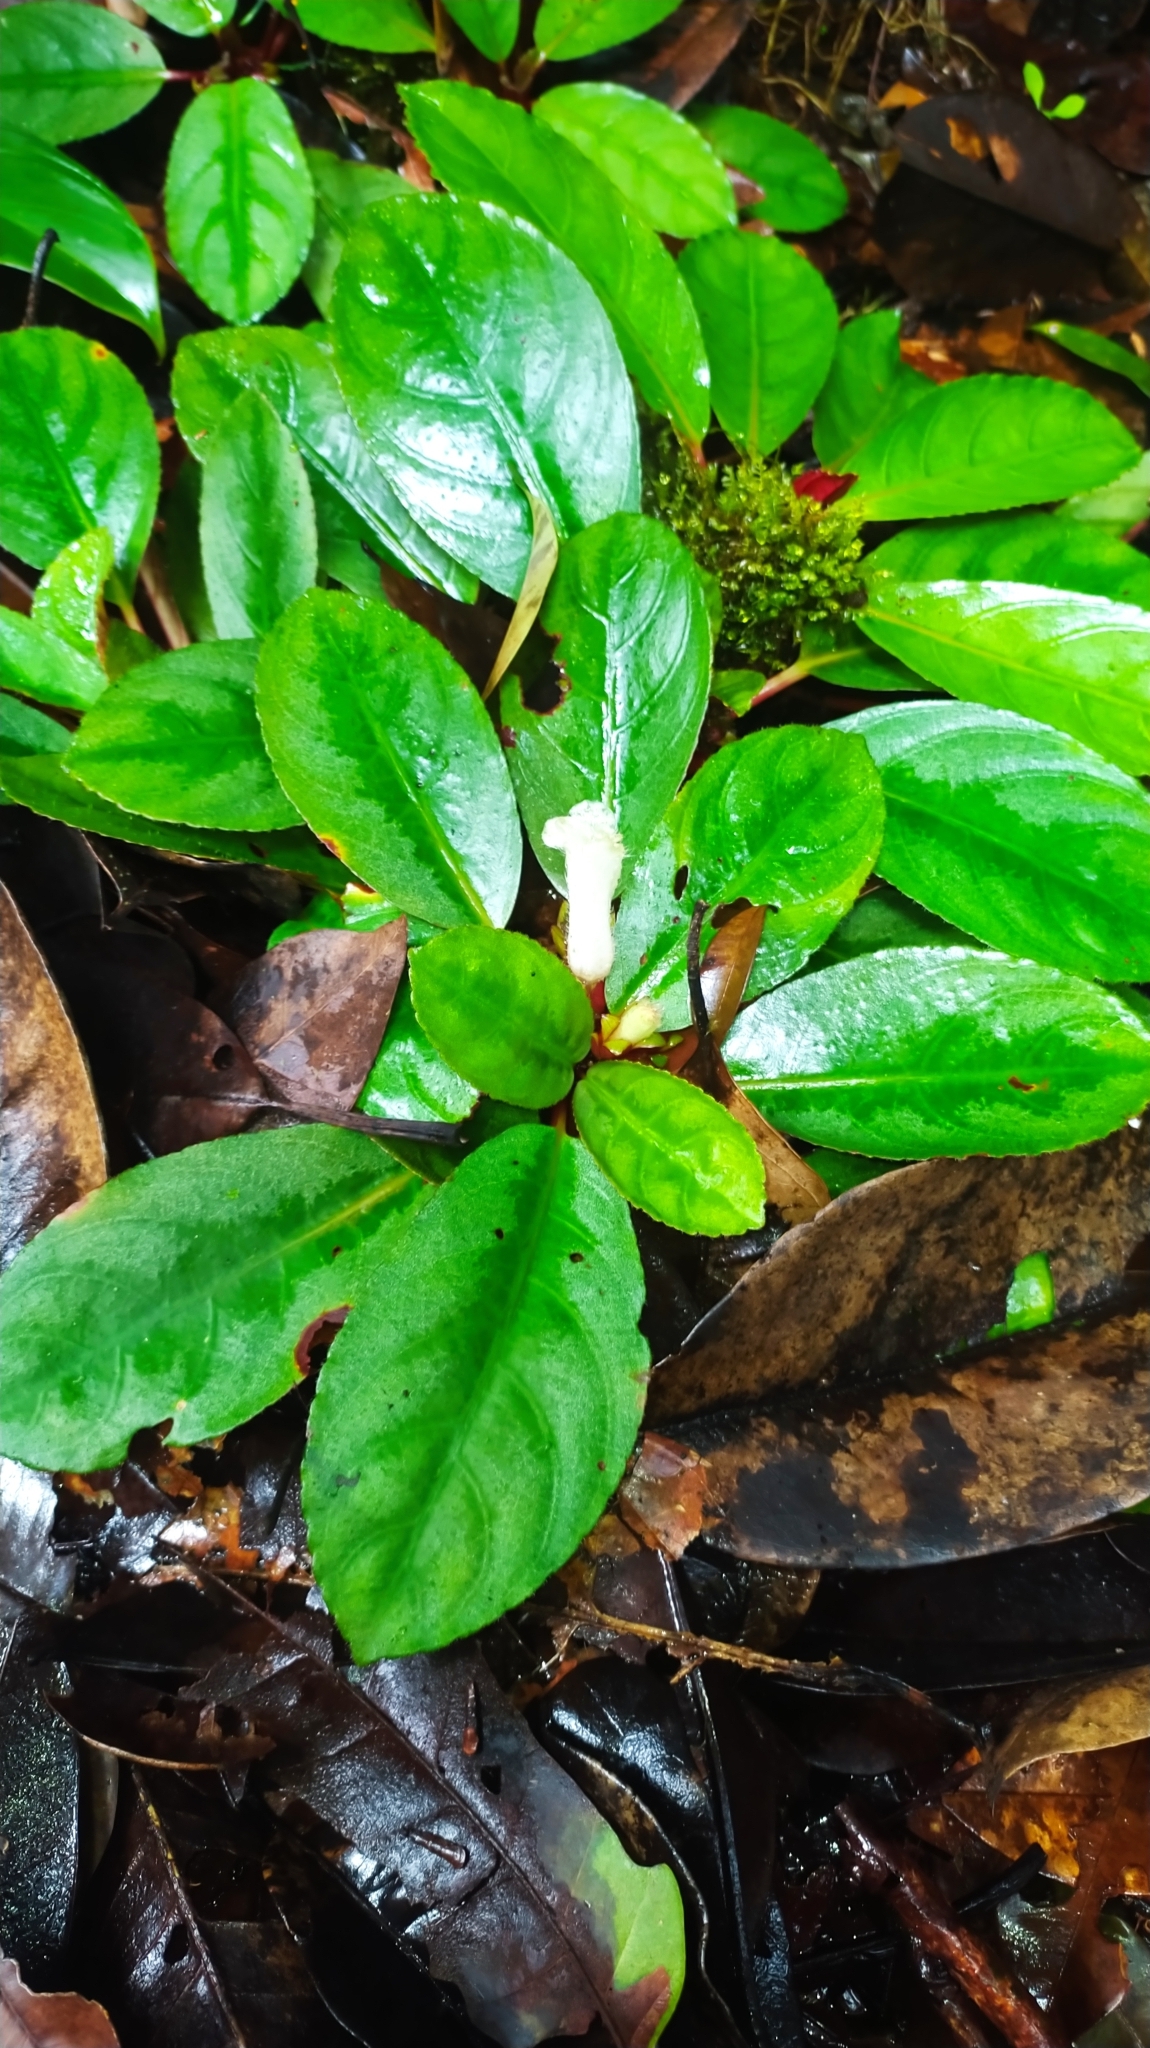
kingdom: Plantae
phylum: Tracheophyta
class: Magnoliopsida
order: Lamiales
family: Gesneriaceae
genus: Centrosolenia
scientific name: Centrosolenia densa
